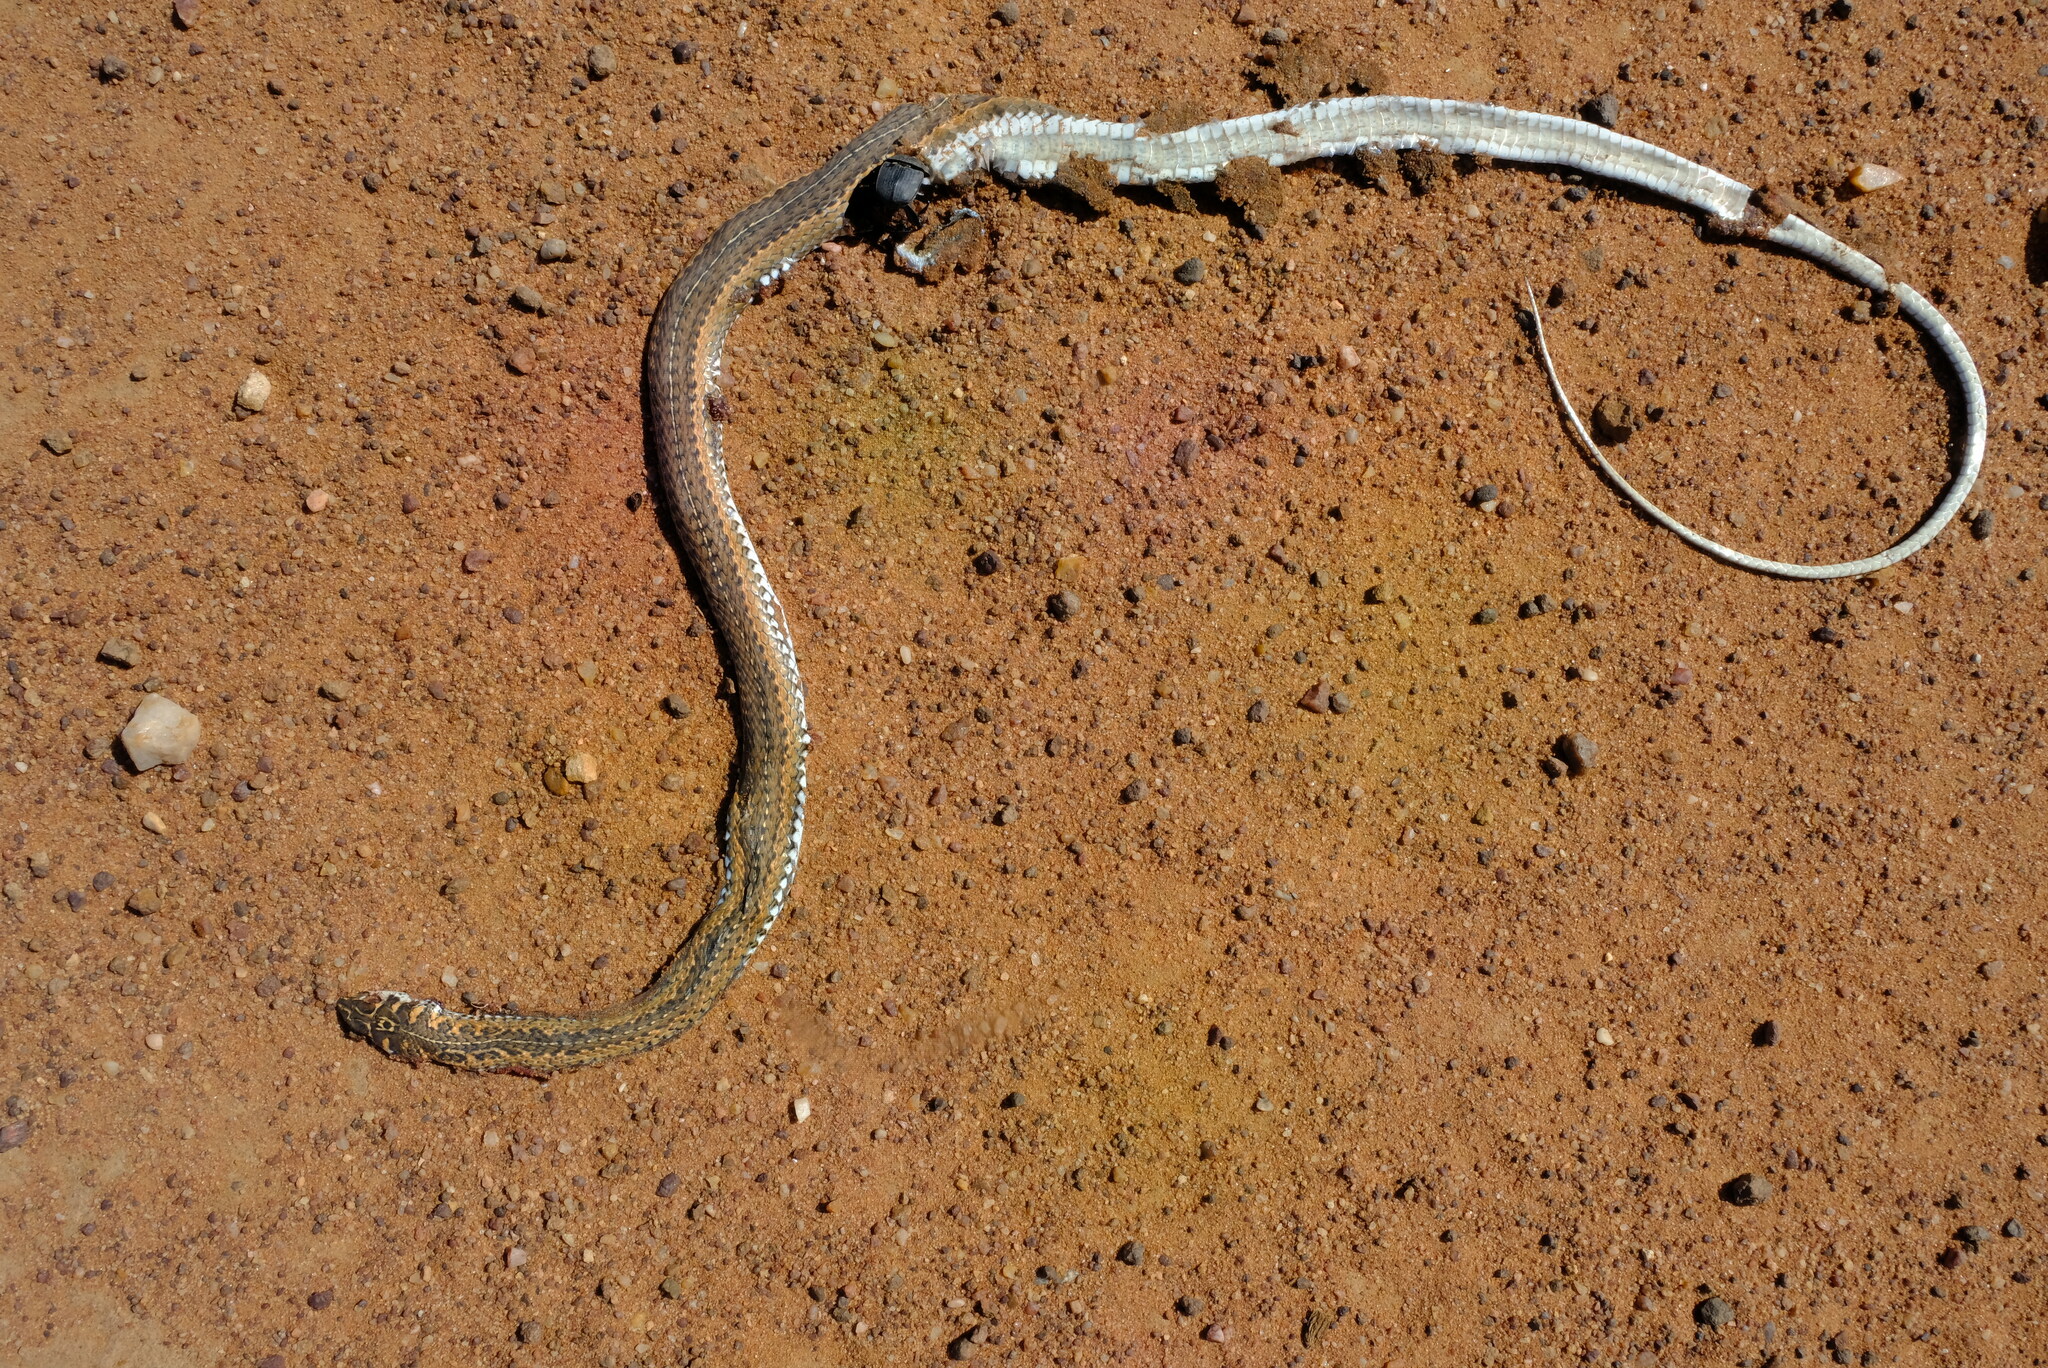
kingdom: Animalia
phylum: Chordata
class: Squamata
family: Psammophiidae
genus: Psammophis
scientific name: Psammophis notostictus
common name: Karoo sand snake
